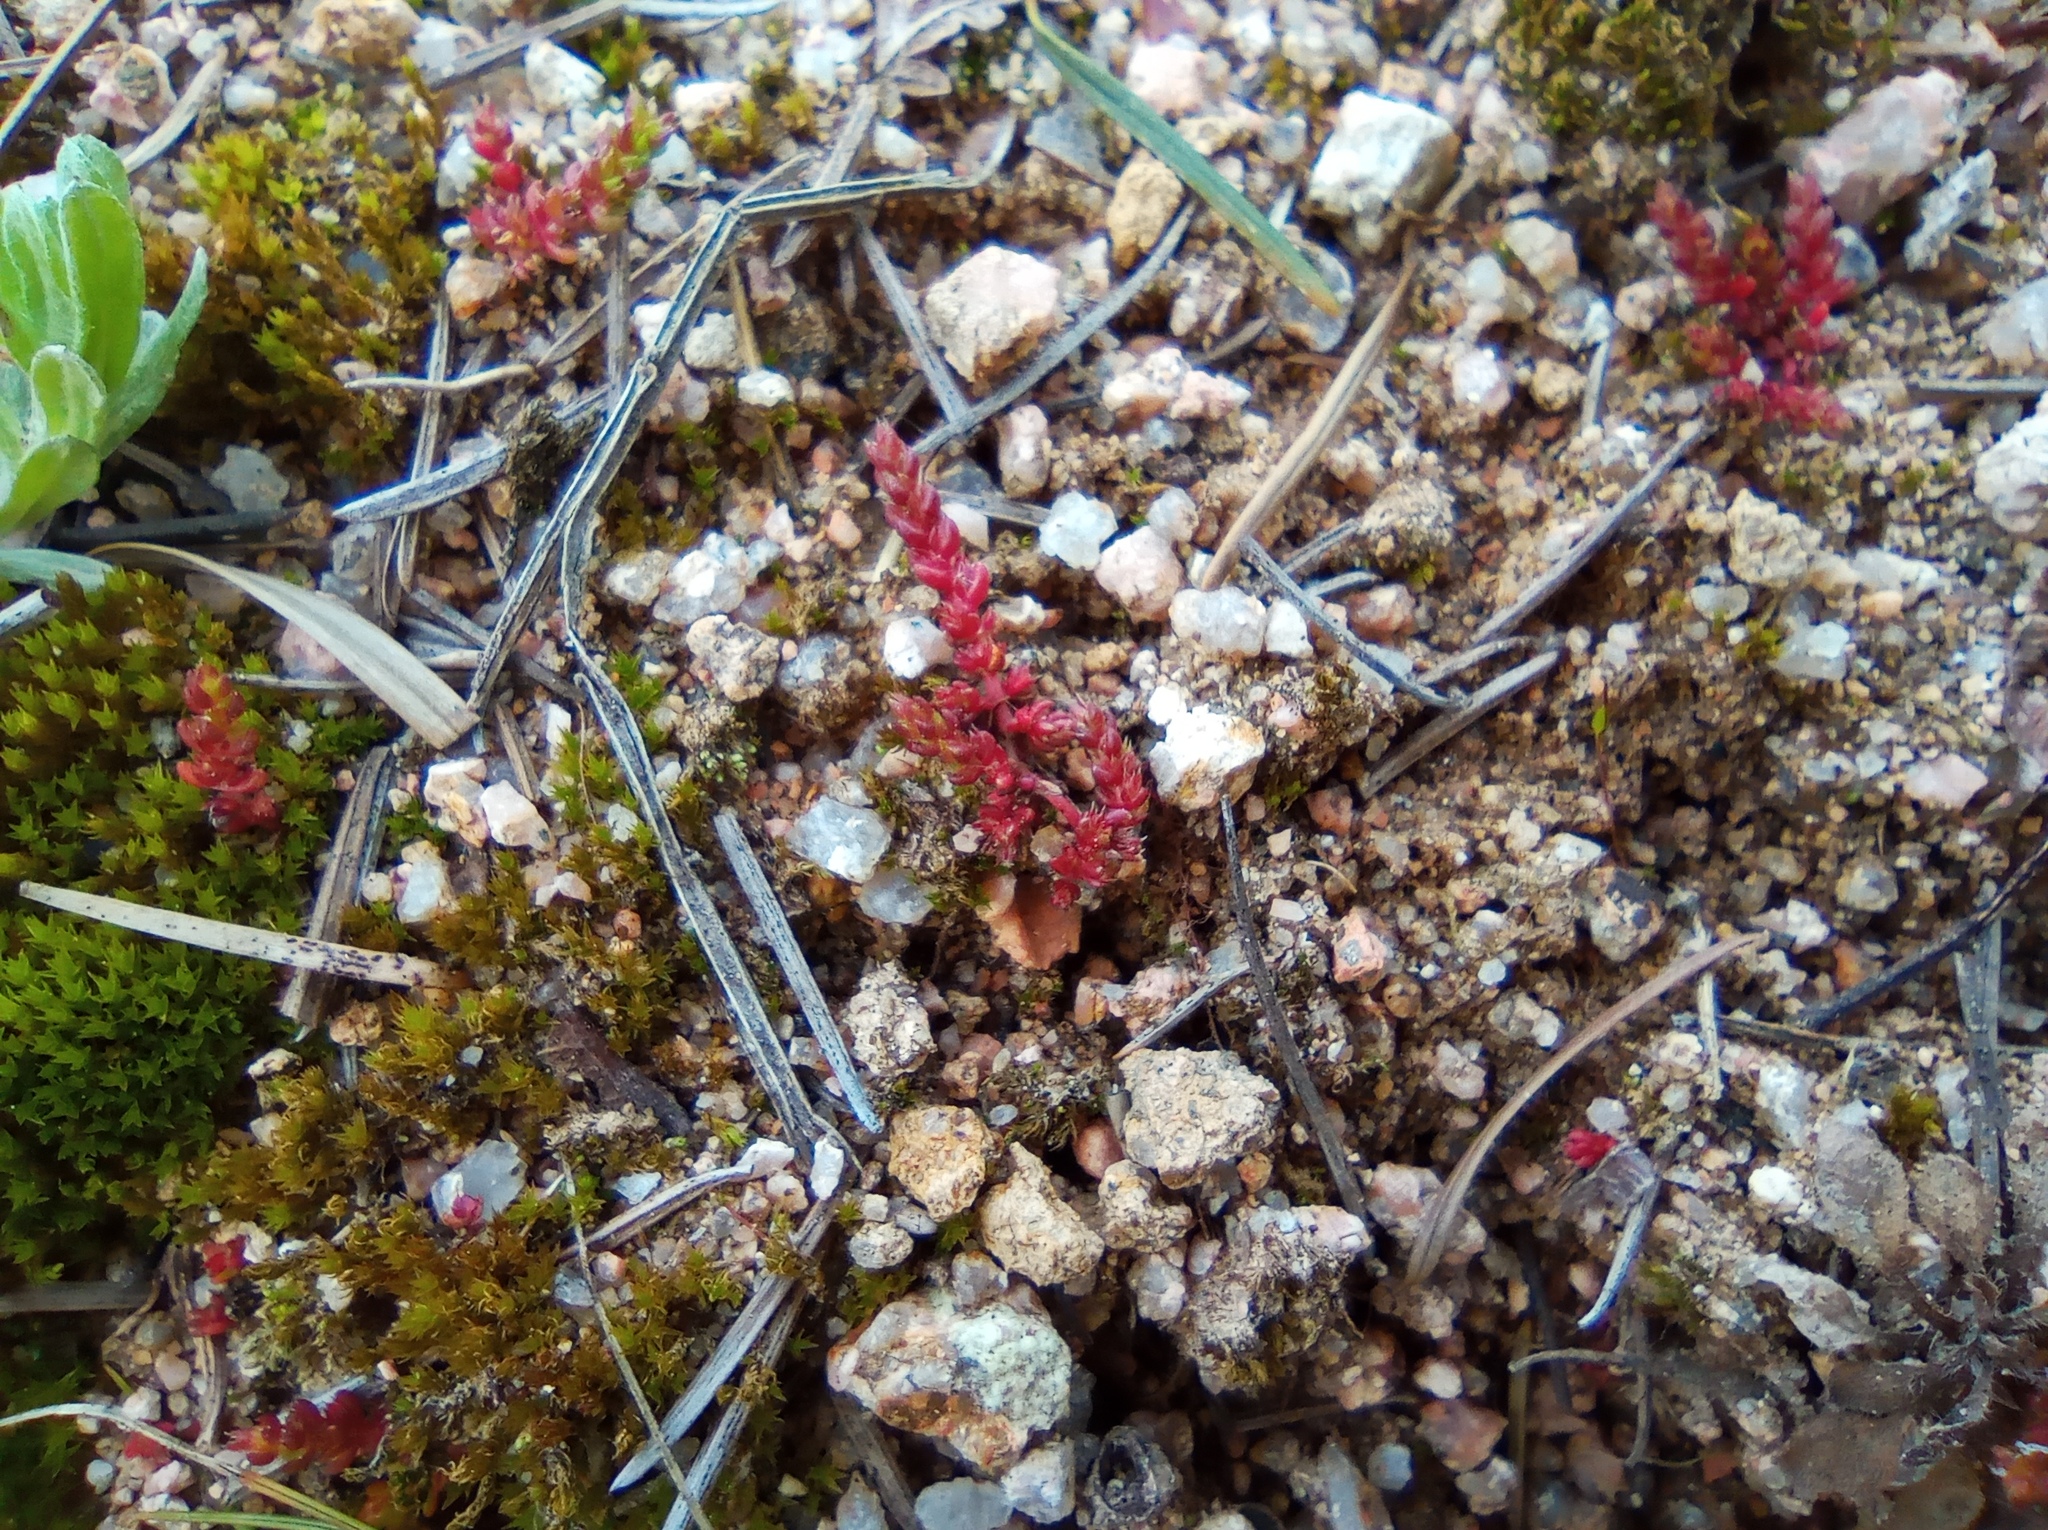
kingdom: Plantae
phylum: Tracheophyta
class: Magnoliopsida
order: Saxifragales
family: Crassulaceae
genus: Crassula
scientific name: Crassula tillaea
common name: Mossy stonecrop
